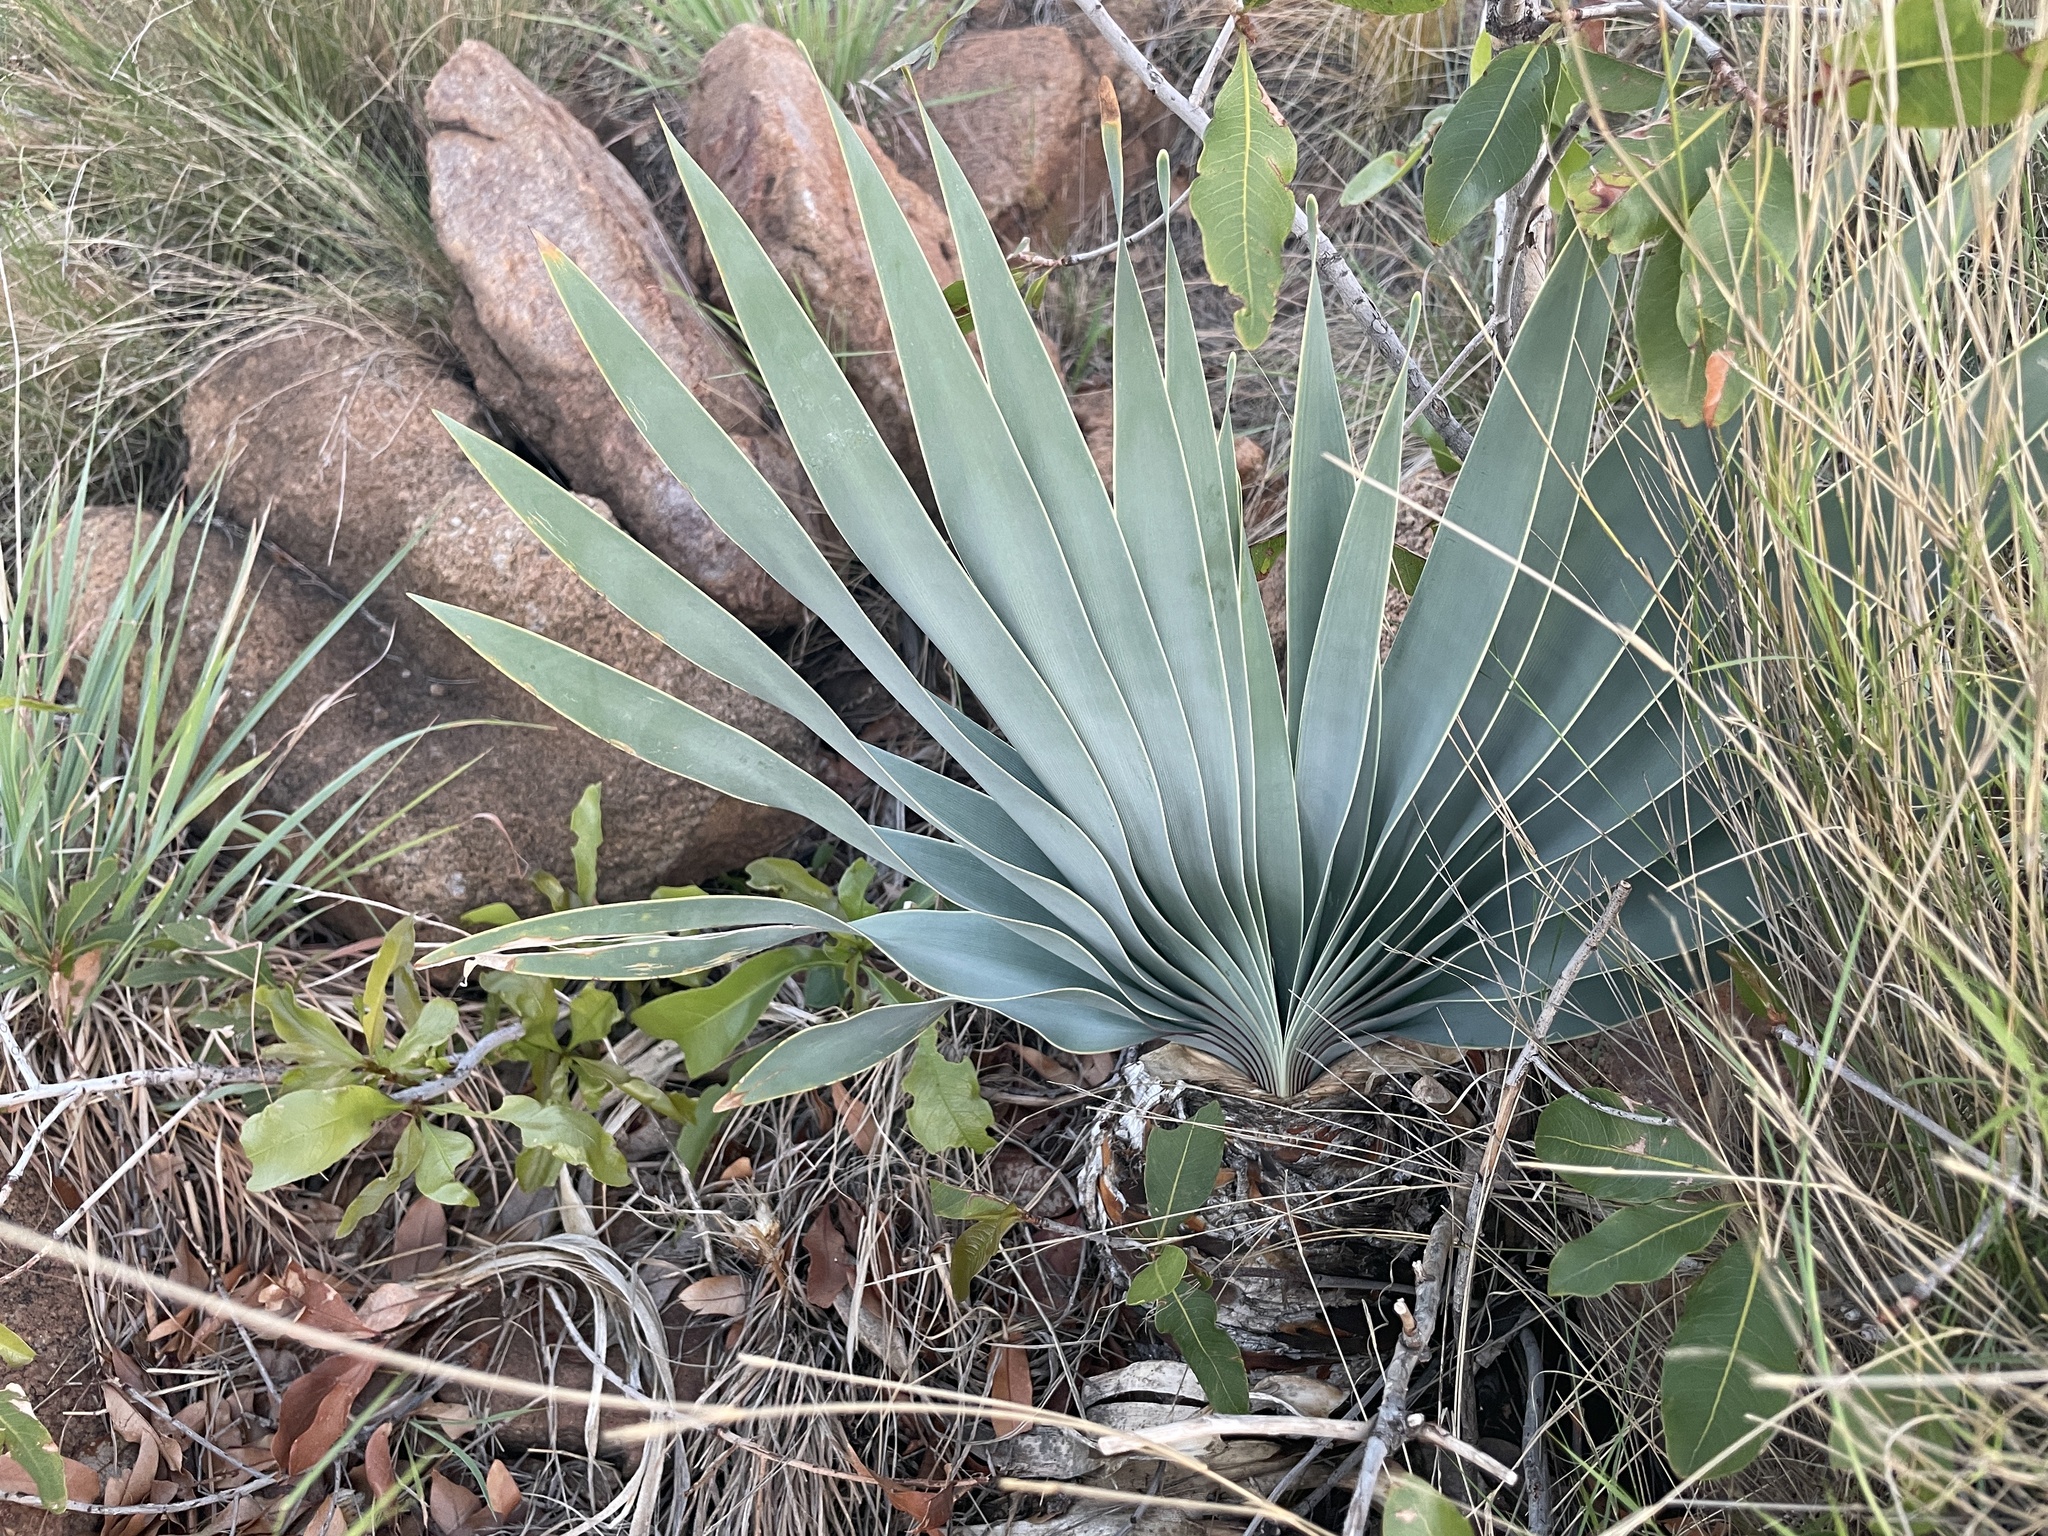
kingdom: Plantae
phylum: Tracheophyta
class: Liliopsida
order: Asparagales
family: Amaryllidaceae
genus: Boophone
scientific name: Boophone disticha
